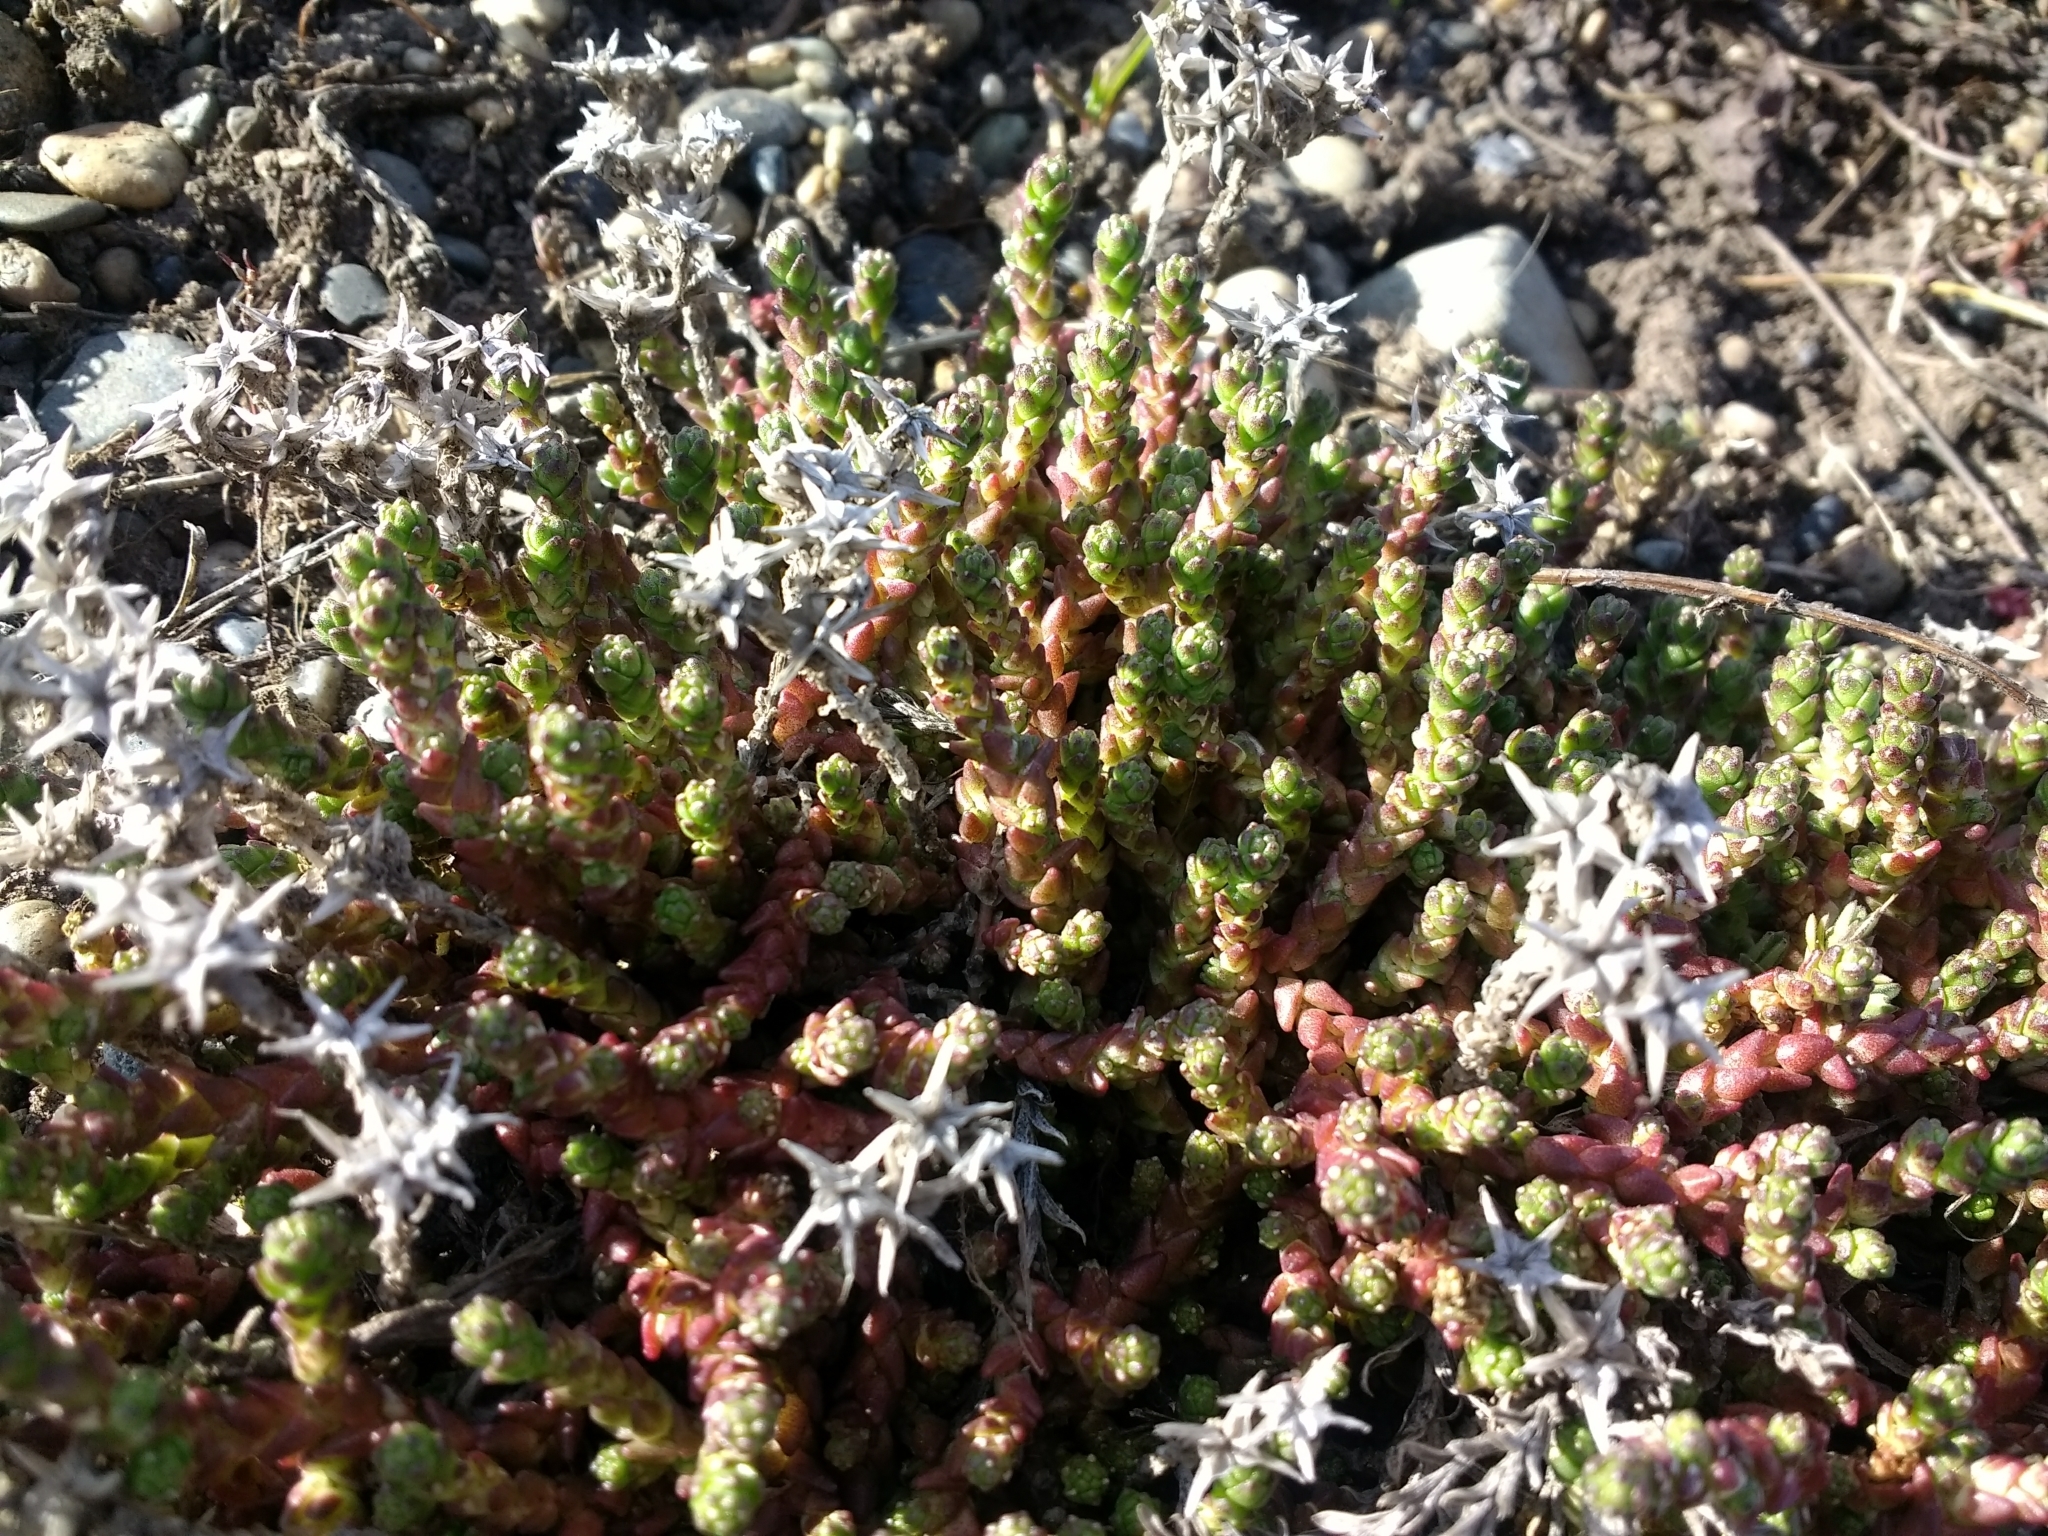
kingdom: Plantae
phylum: Tracheophyta
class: Magnoliopsida
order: Saxifragales
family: Crassulaceae
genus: Sedum
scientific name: Sedum acre
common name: Biting stonecrop
